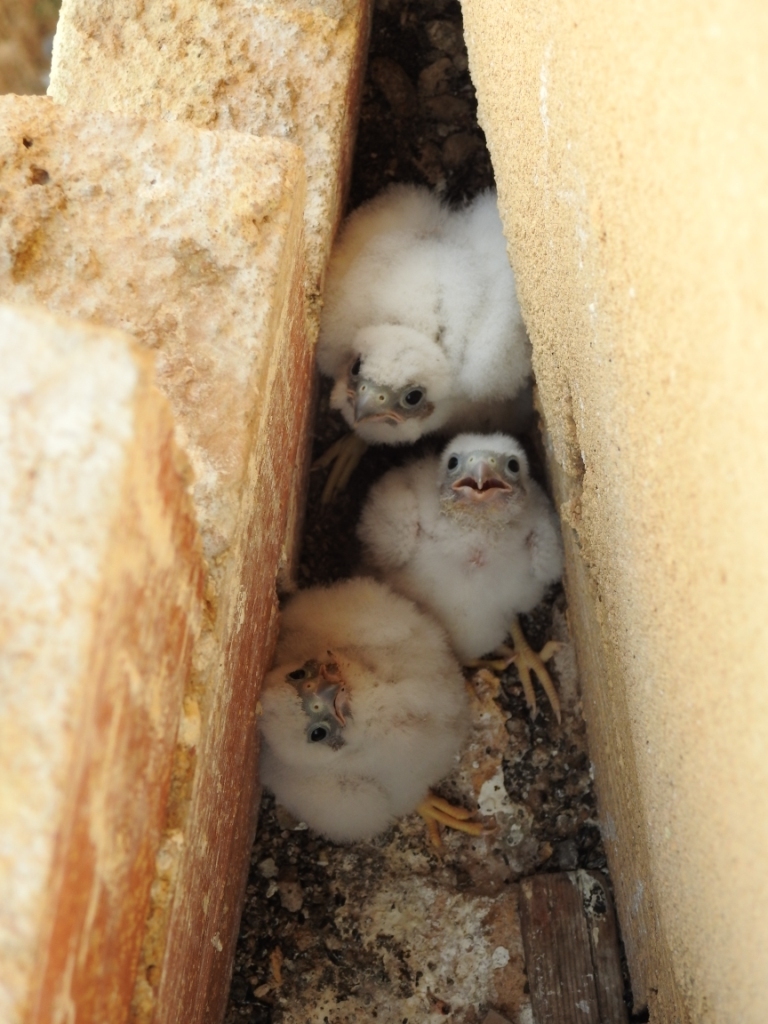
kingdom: Animalia
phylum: Chordata
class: Aves
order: Falconiformes
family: Falconidae
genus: Falco
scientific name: Falco naumanni
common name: Lesser kestrel
